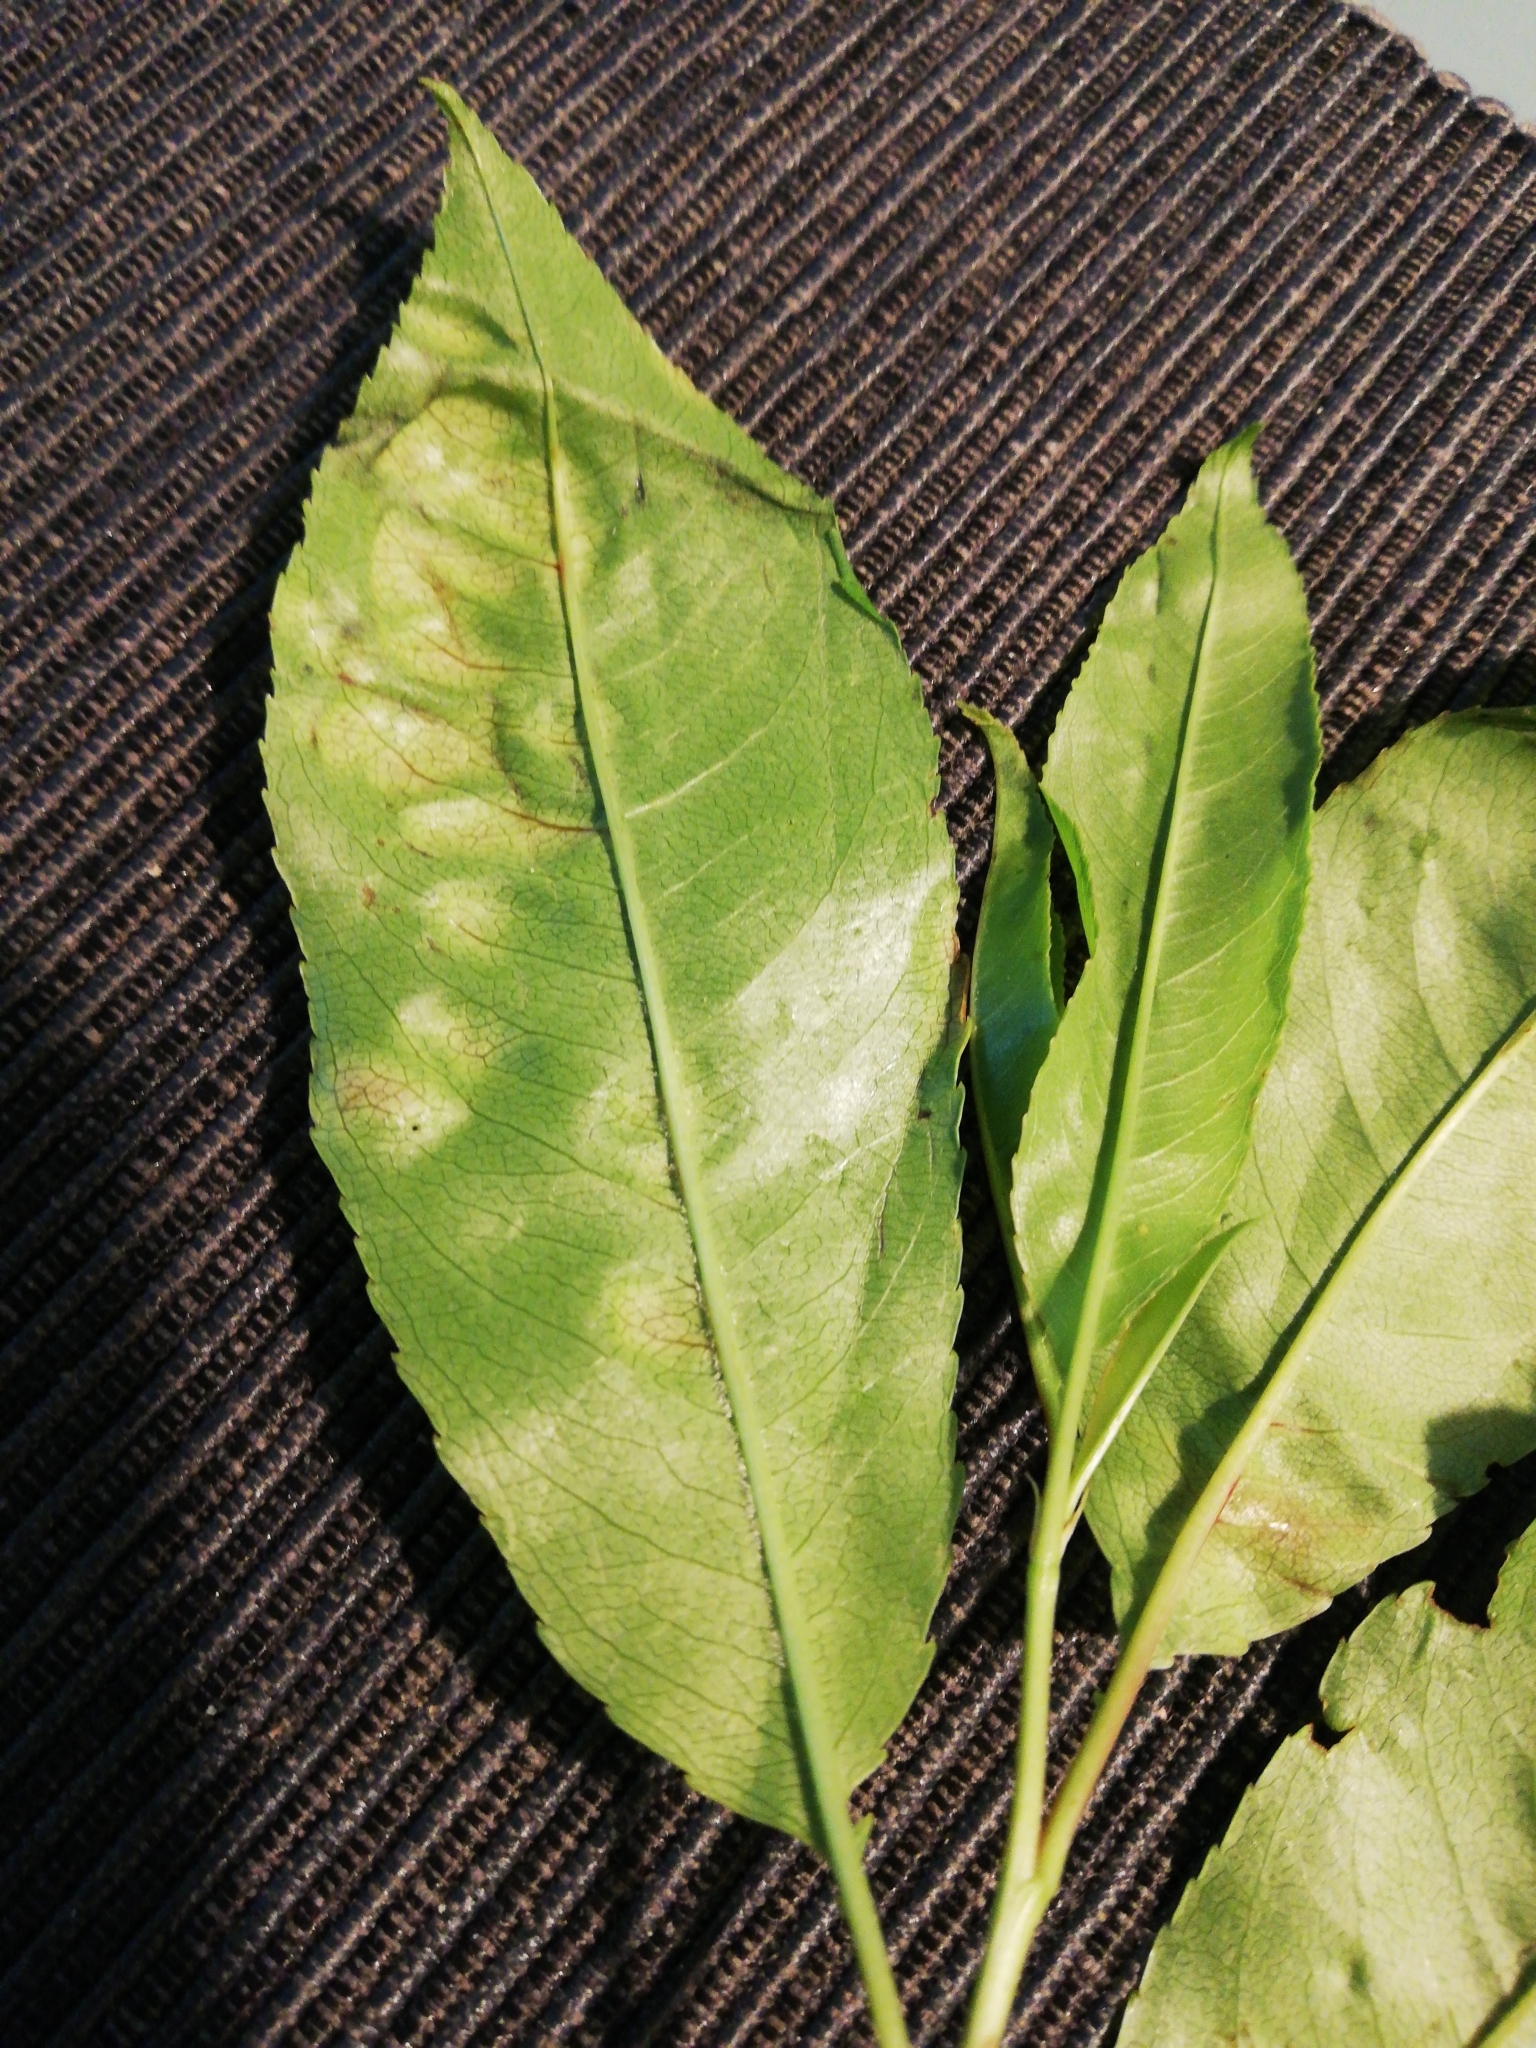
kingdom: Fungi
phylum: Ascomycota
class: Taphrinomycetes
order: Taphrinales
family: Taphrinaceae
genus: Taphrina
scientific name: Taphrina farlowii
